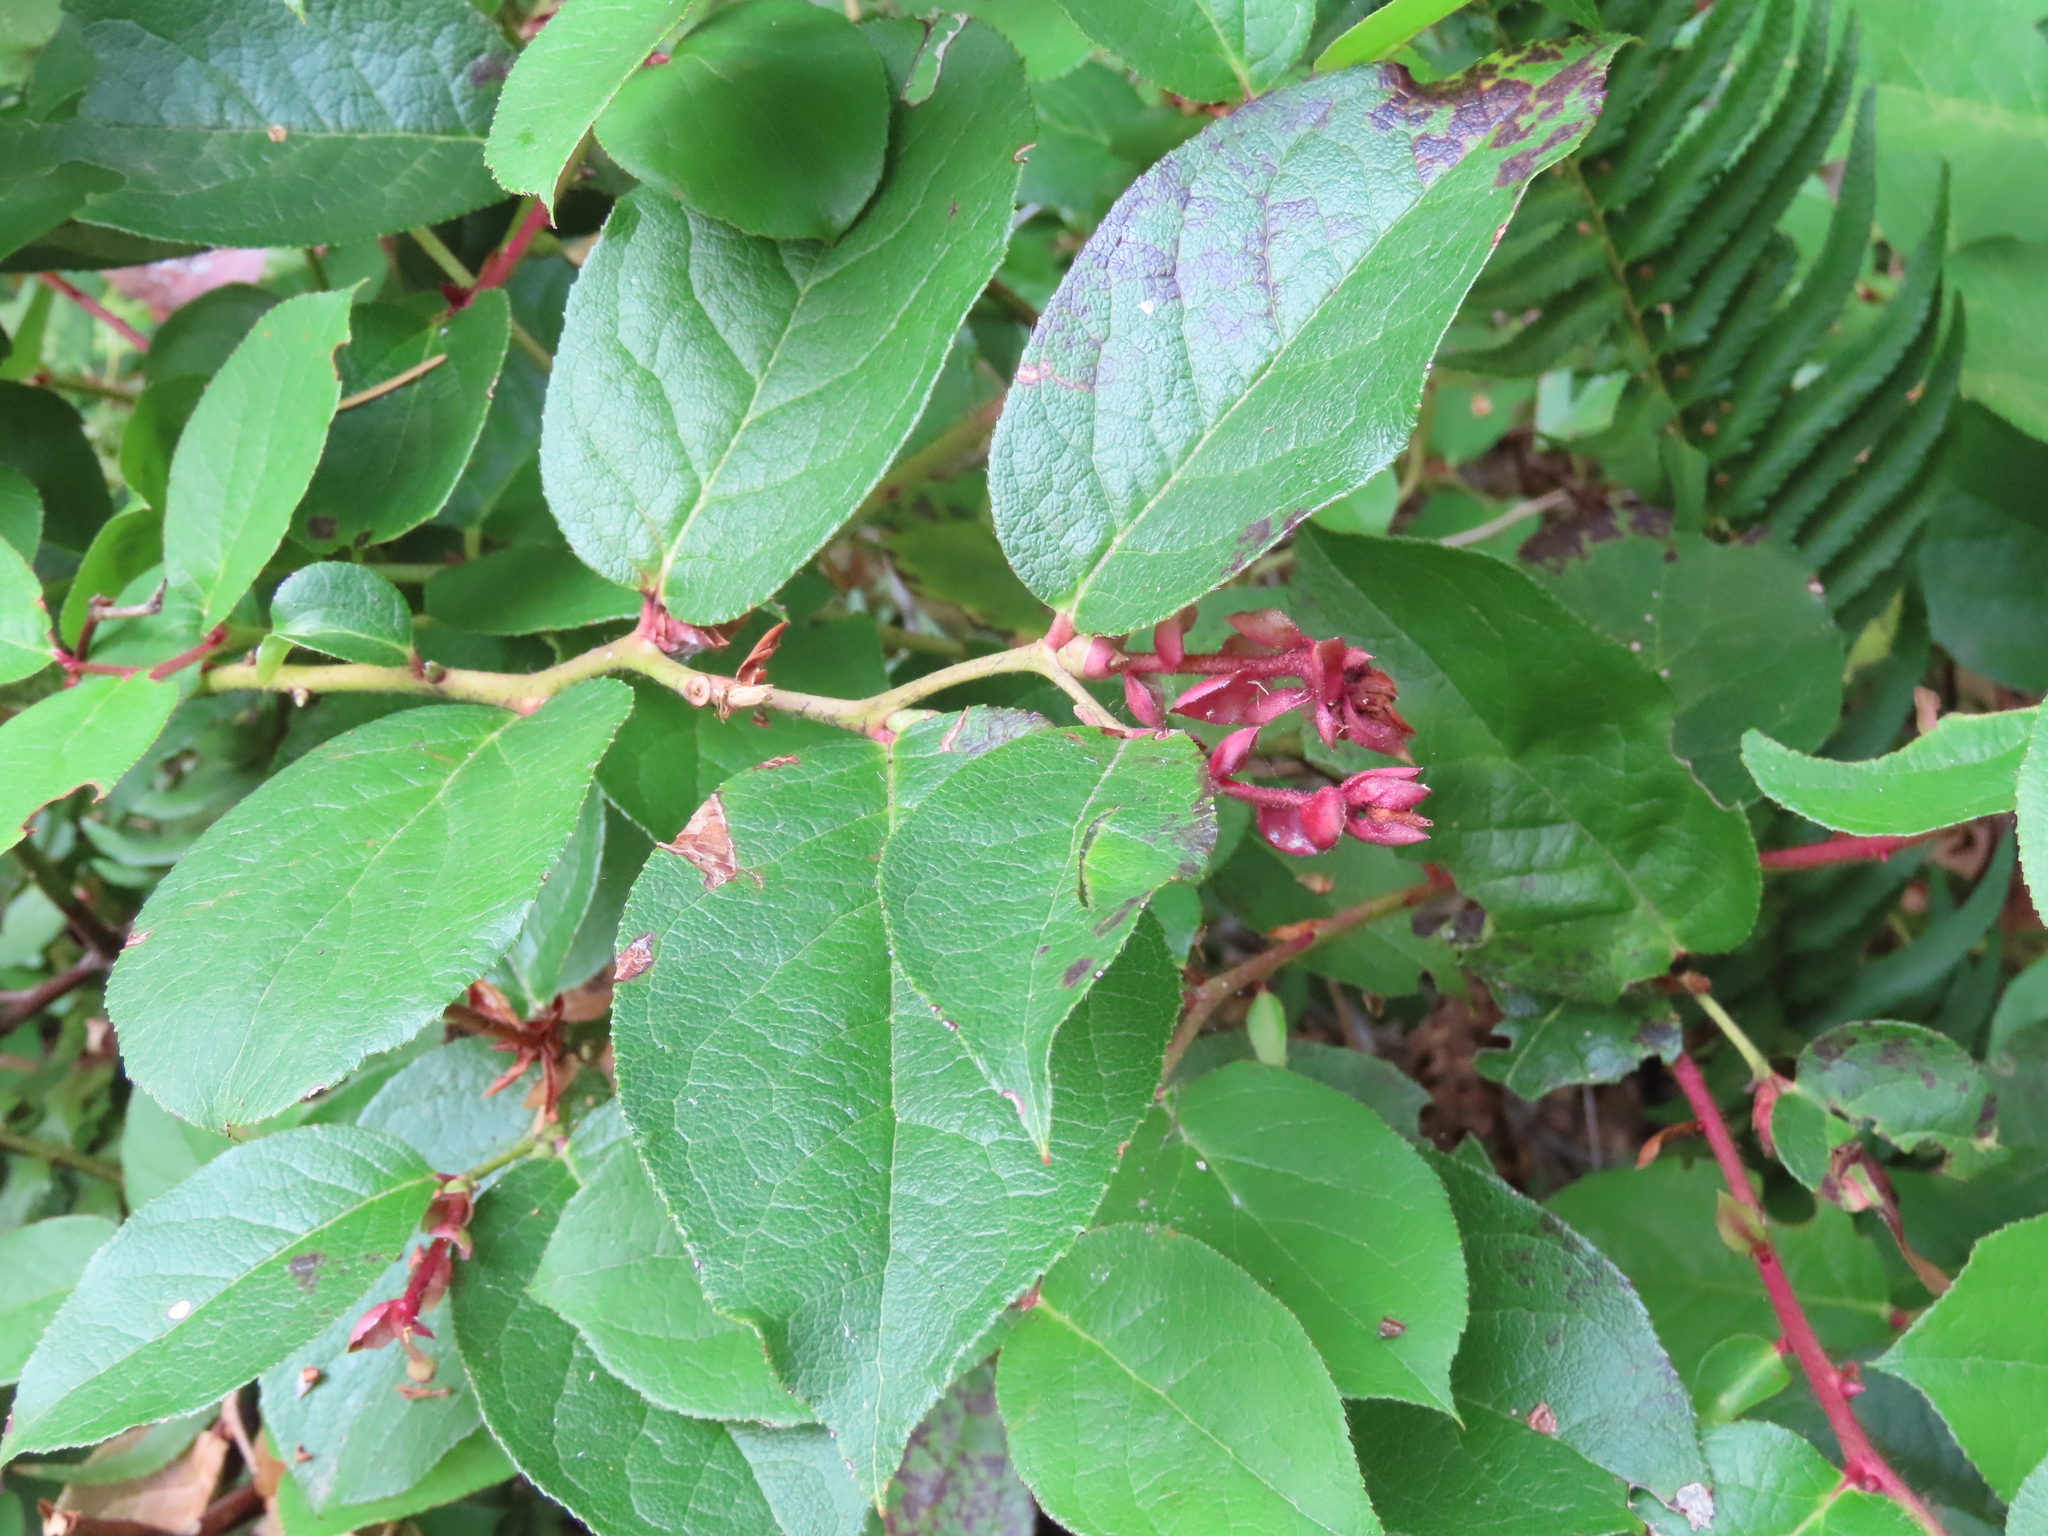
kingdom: Plantae
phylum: Tracheophyta
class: Magnoliopsida
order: Ericales
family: Ericaceae
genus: Gaultheria
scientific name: Gaultheria shallon
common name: Shallon
